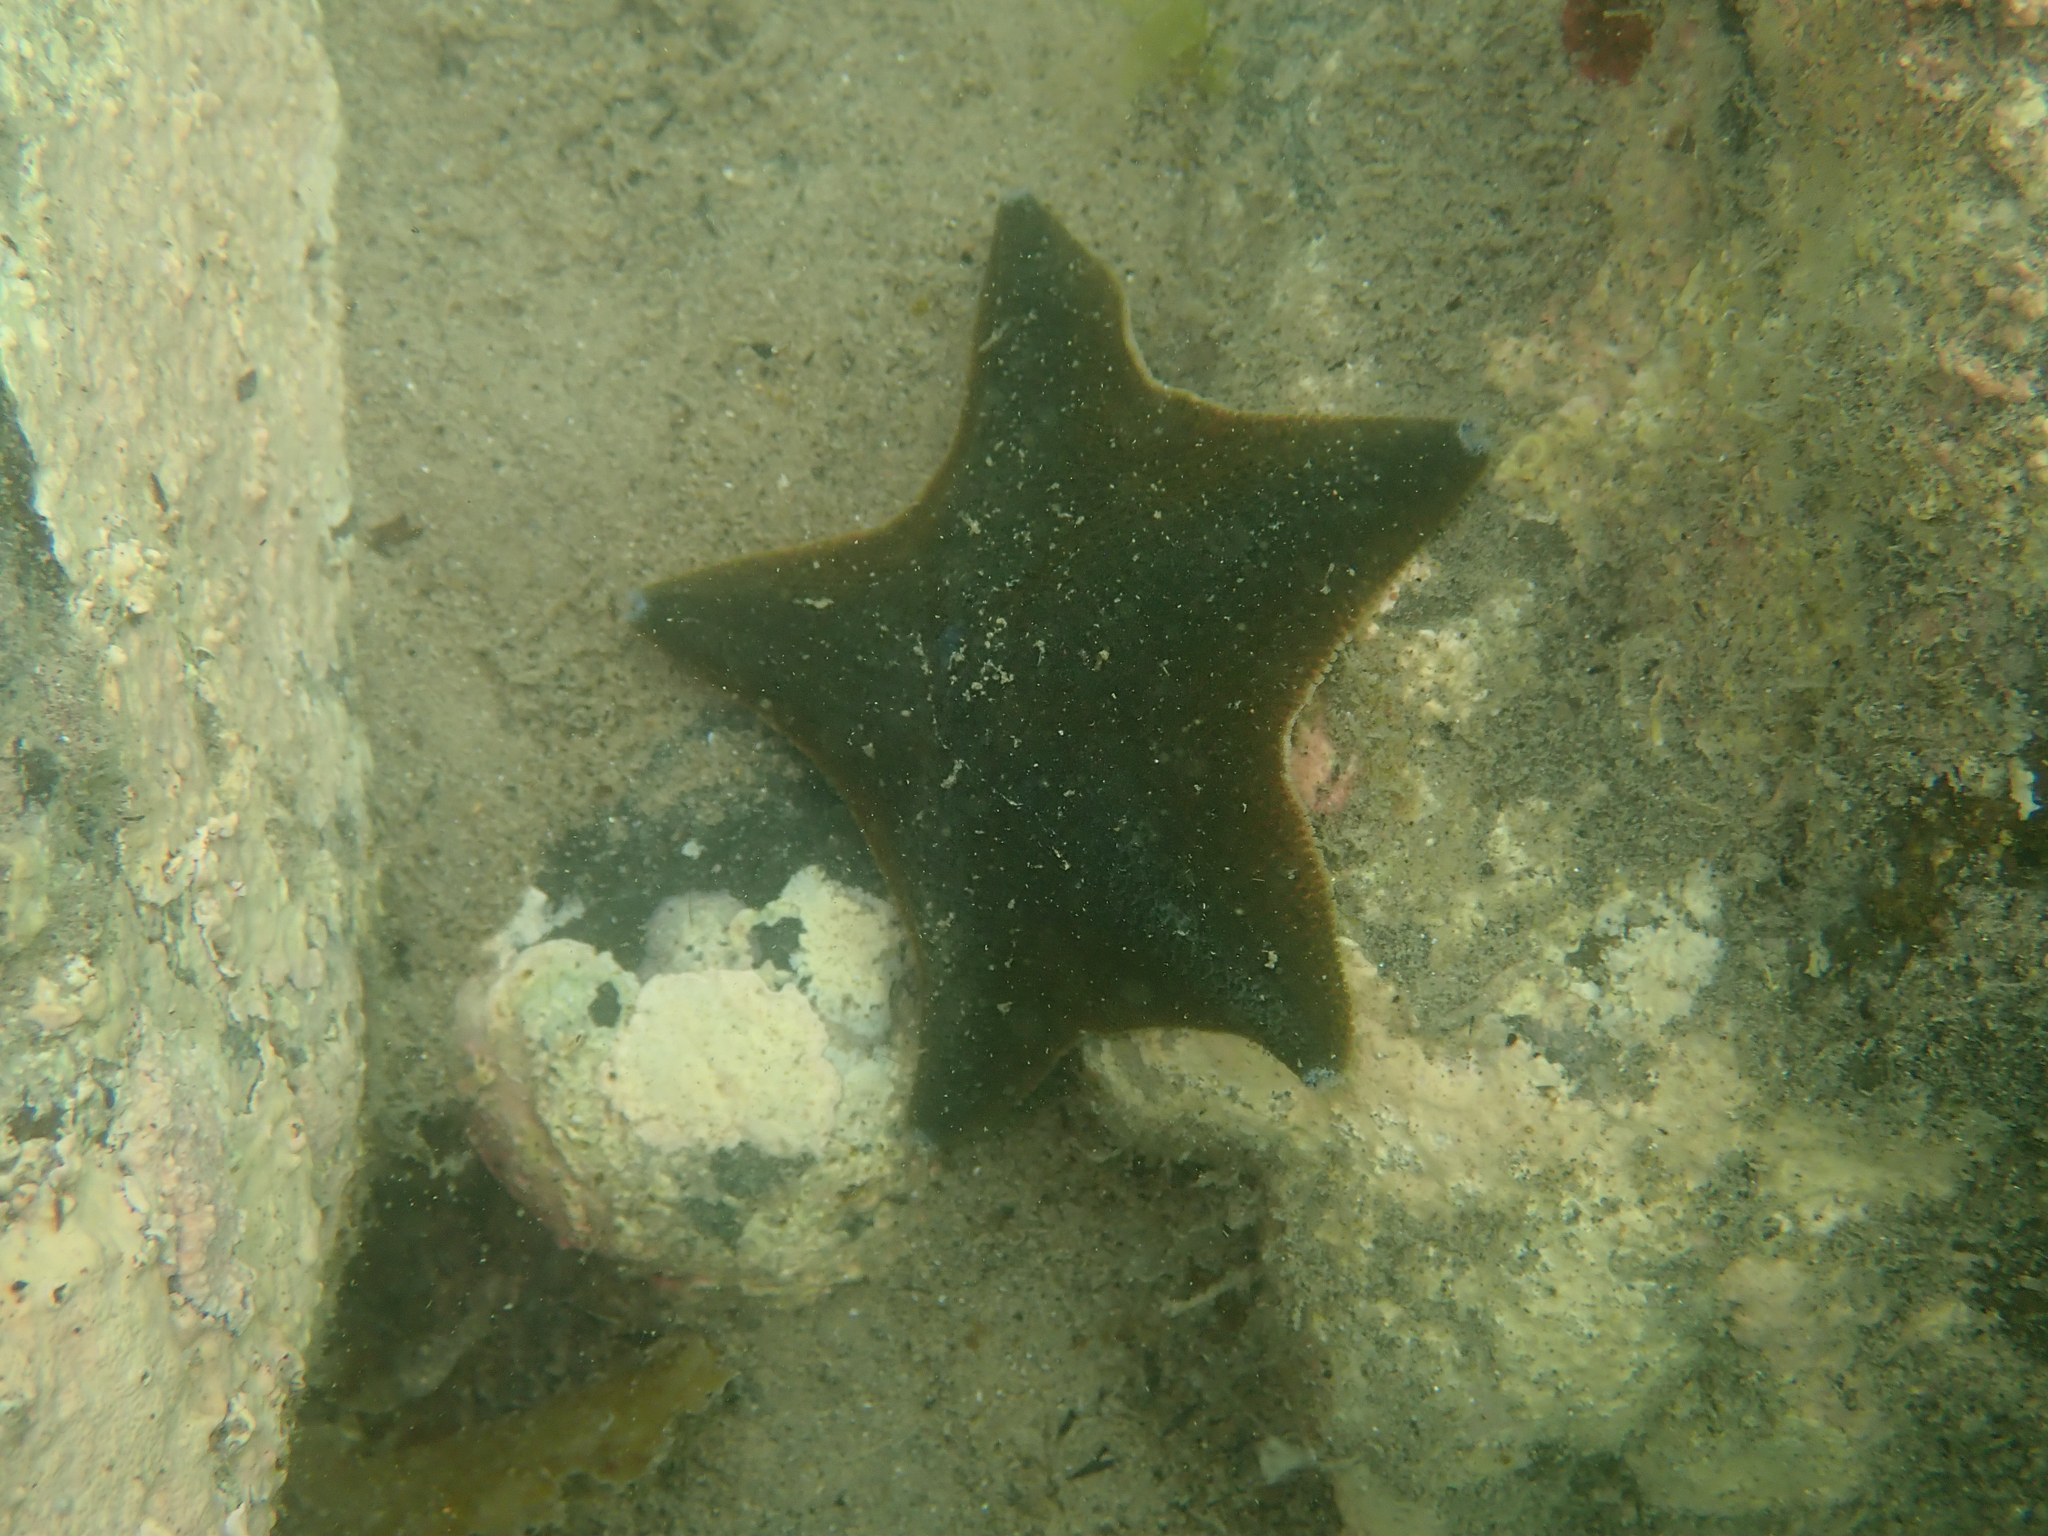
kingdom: Animalia
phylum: Echinodermata
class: Asteroidea
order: Valvatida
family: Asterinidae
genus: Patiriella
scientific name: Patiriella regularis
